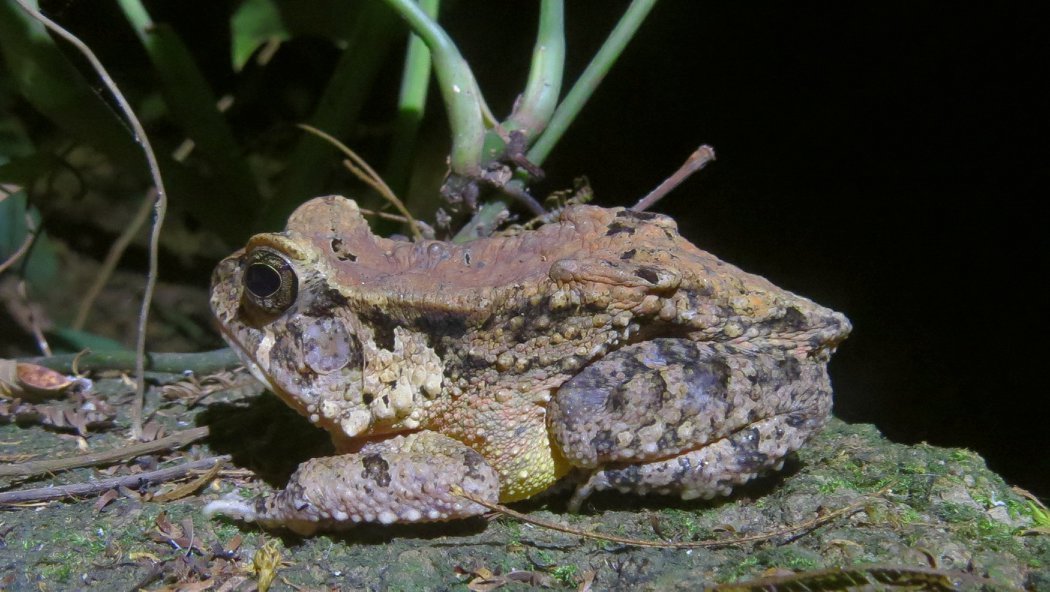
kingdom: Animalia
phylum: Chordata
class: Amphibia
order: Anura
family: Bufonidae
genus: Sclerophrys
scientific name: Sclerophrys togoensis
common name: Togo toad
